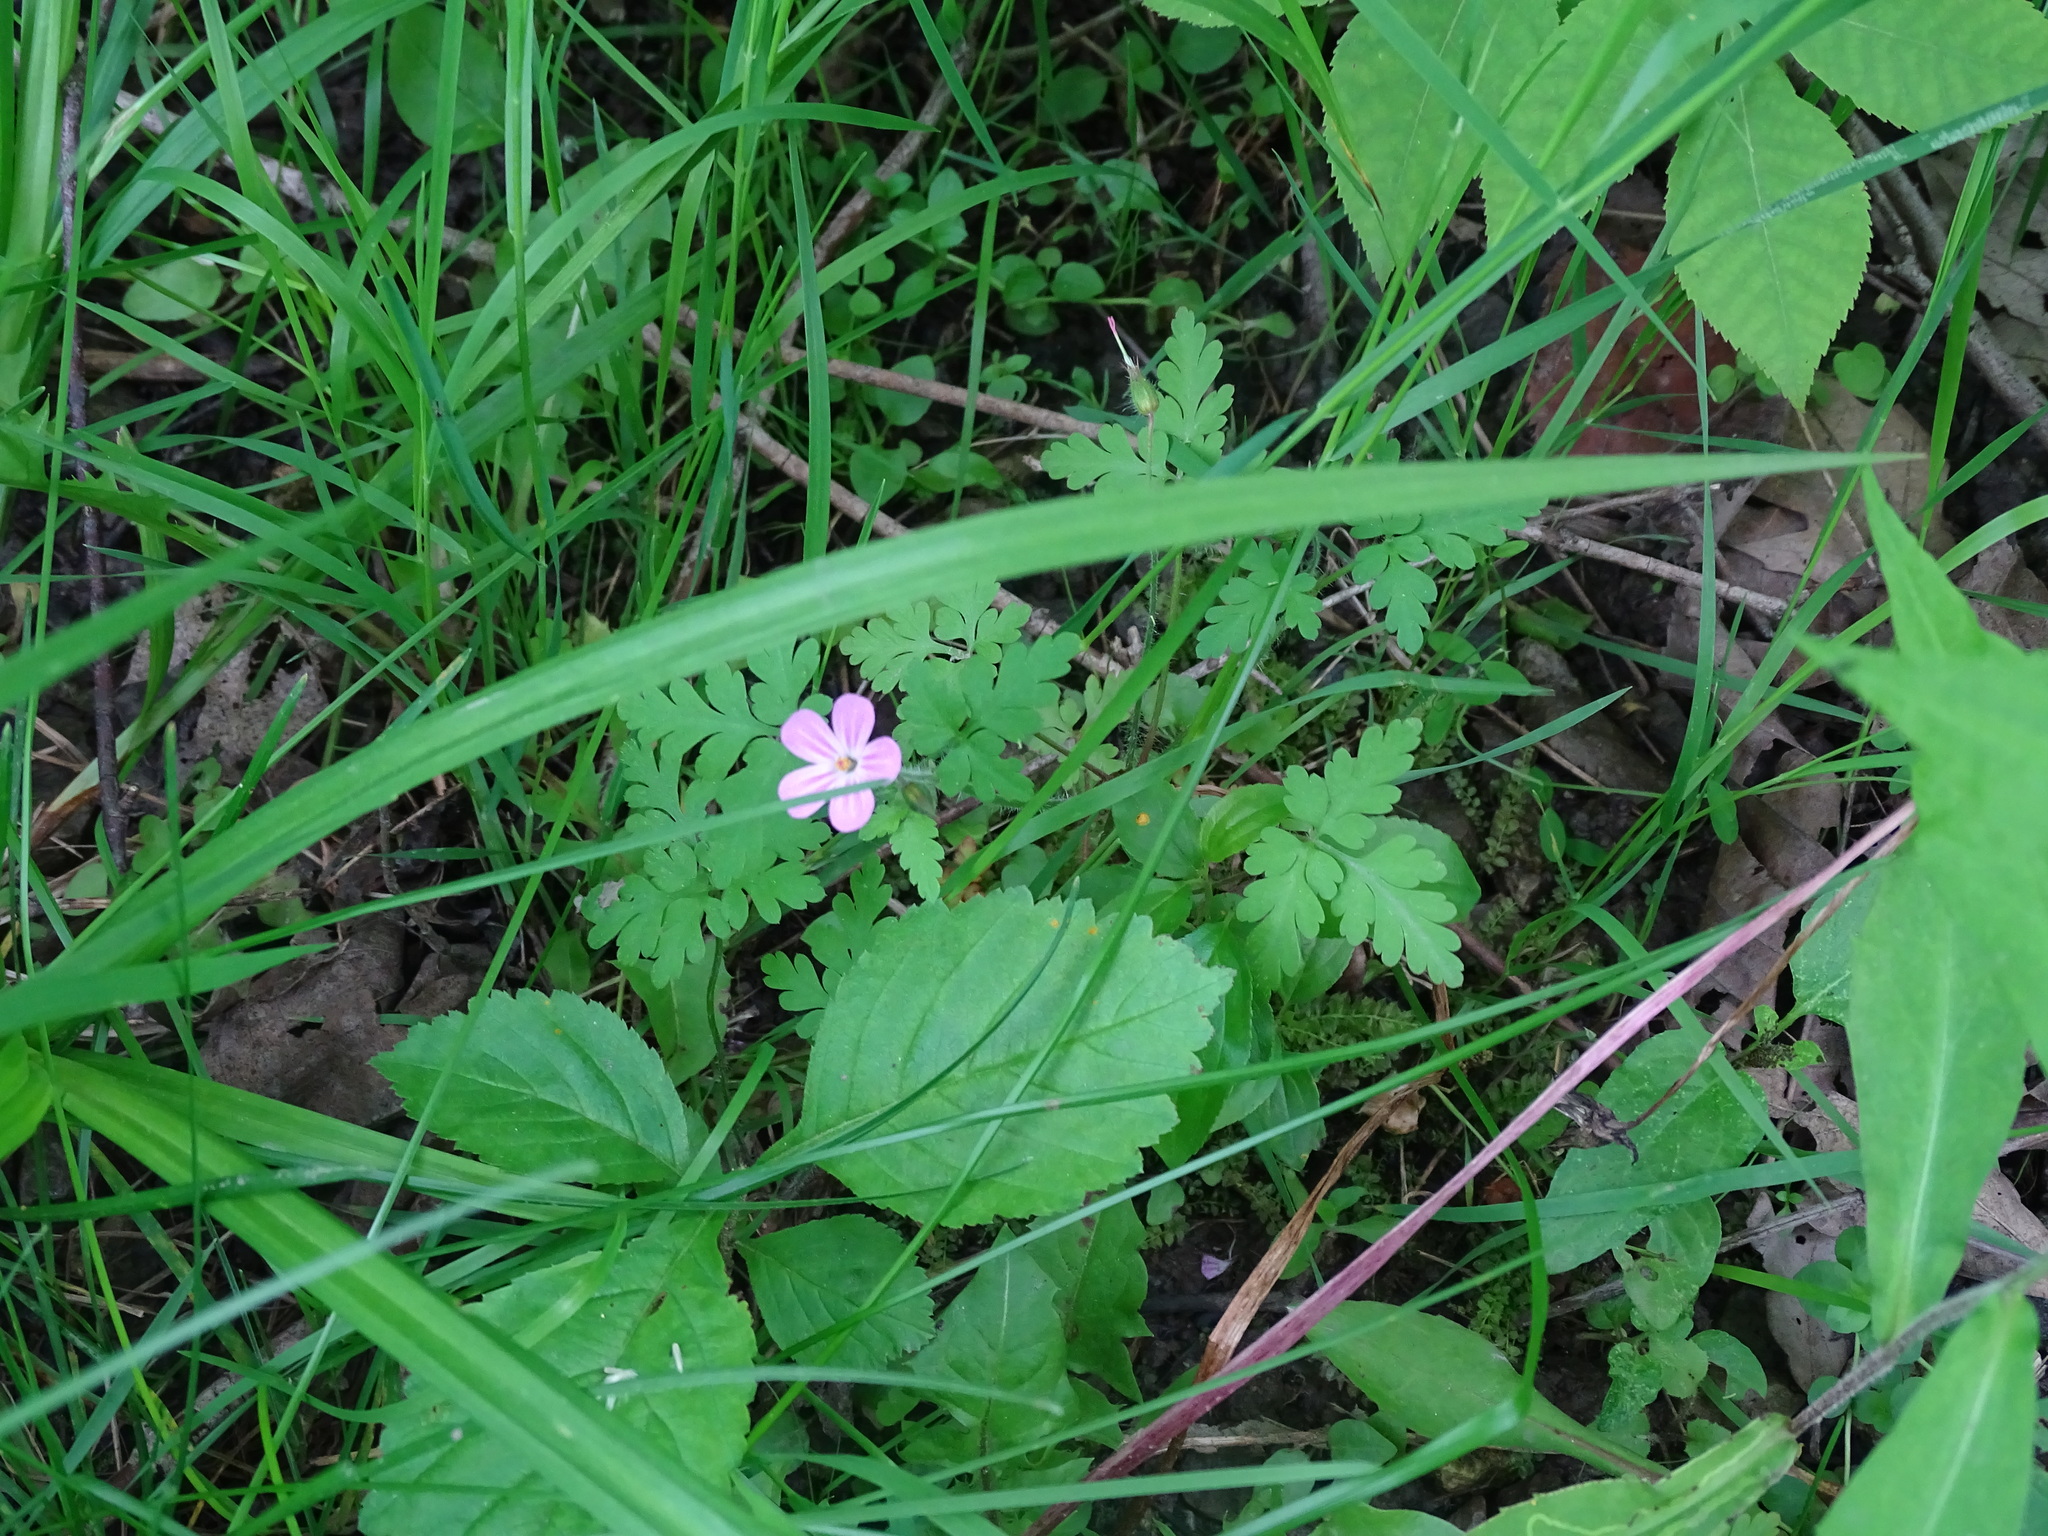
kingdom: Plantae
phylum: Tracheophyta
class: Magnoliopsida
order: Geraniales
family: Geraniaceae
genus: Geranium
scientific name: Geranium robertianum
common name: Herb-robert
